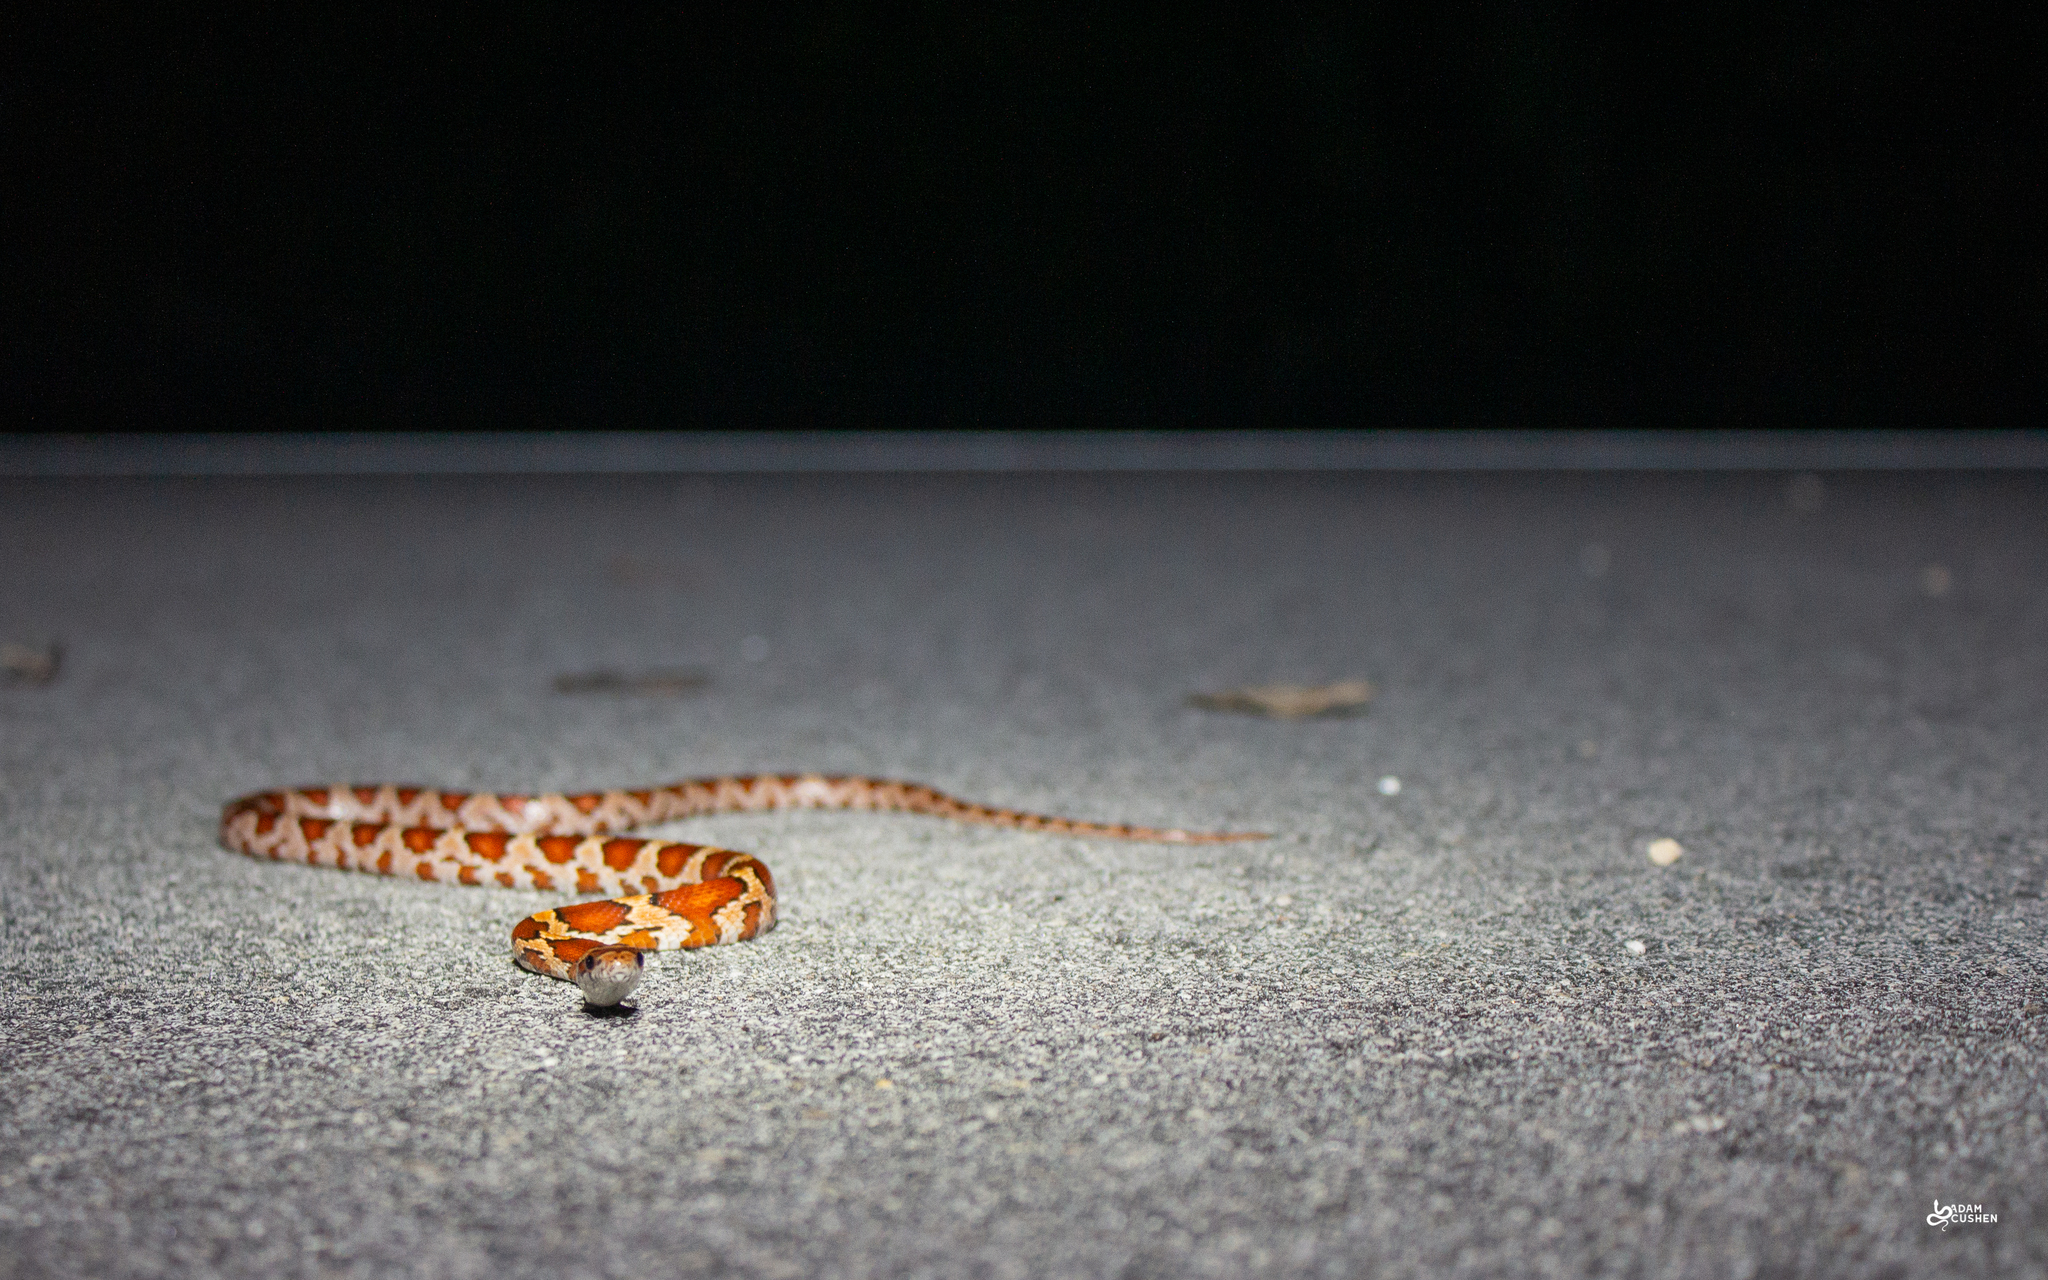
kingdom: Animalia
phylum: Chordata
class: Squamata
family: Colubridae
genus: Pantherophis
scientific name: Pantherophis guttatus
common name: Red cornsnake
